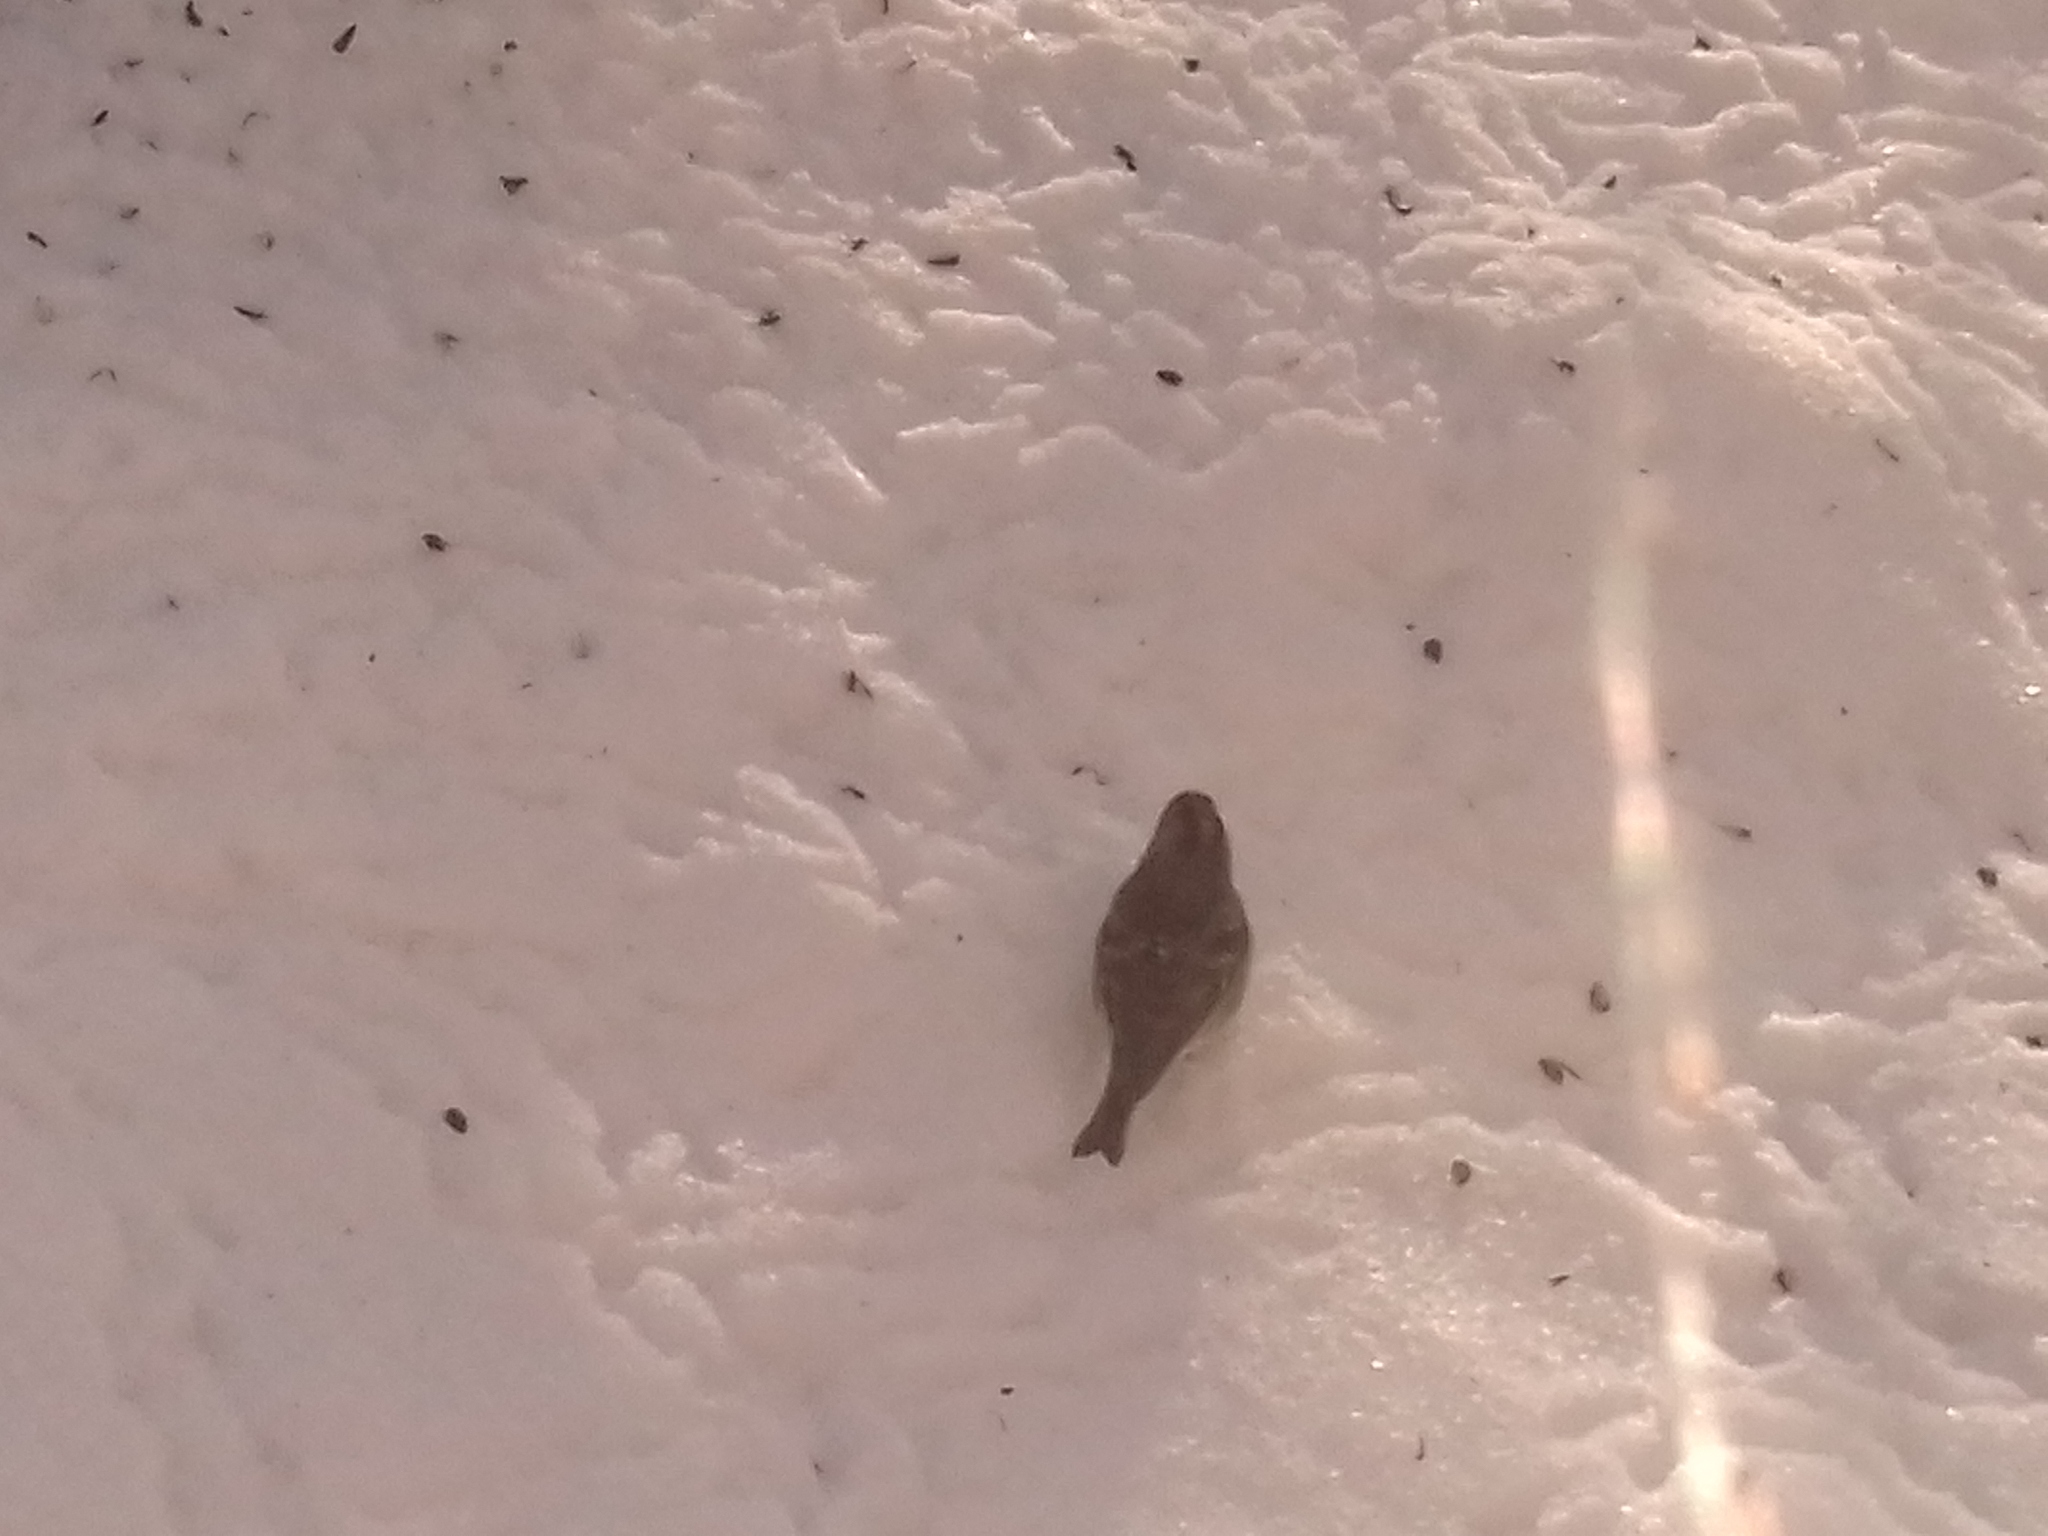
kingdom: Animalia
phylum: Chordata
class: Aves
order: Passeriformes
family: Fringillidae
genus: Fringilla
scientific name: Fringilla montifringilla
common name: Brambling
